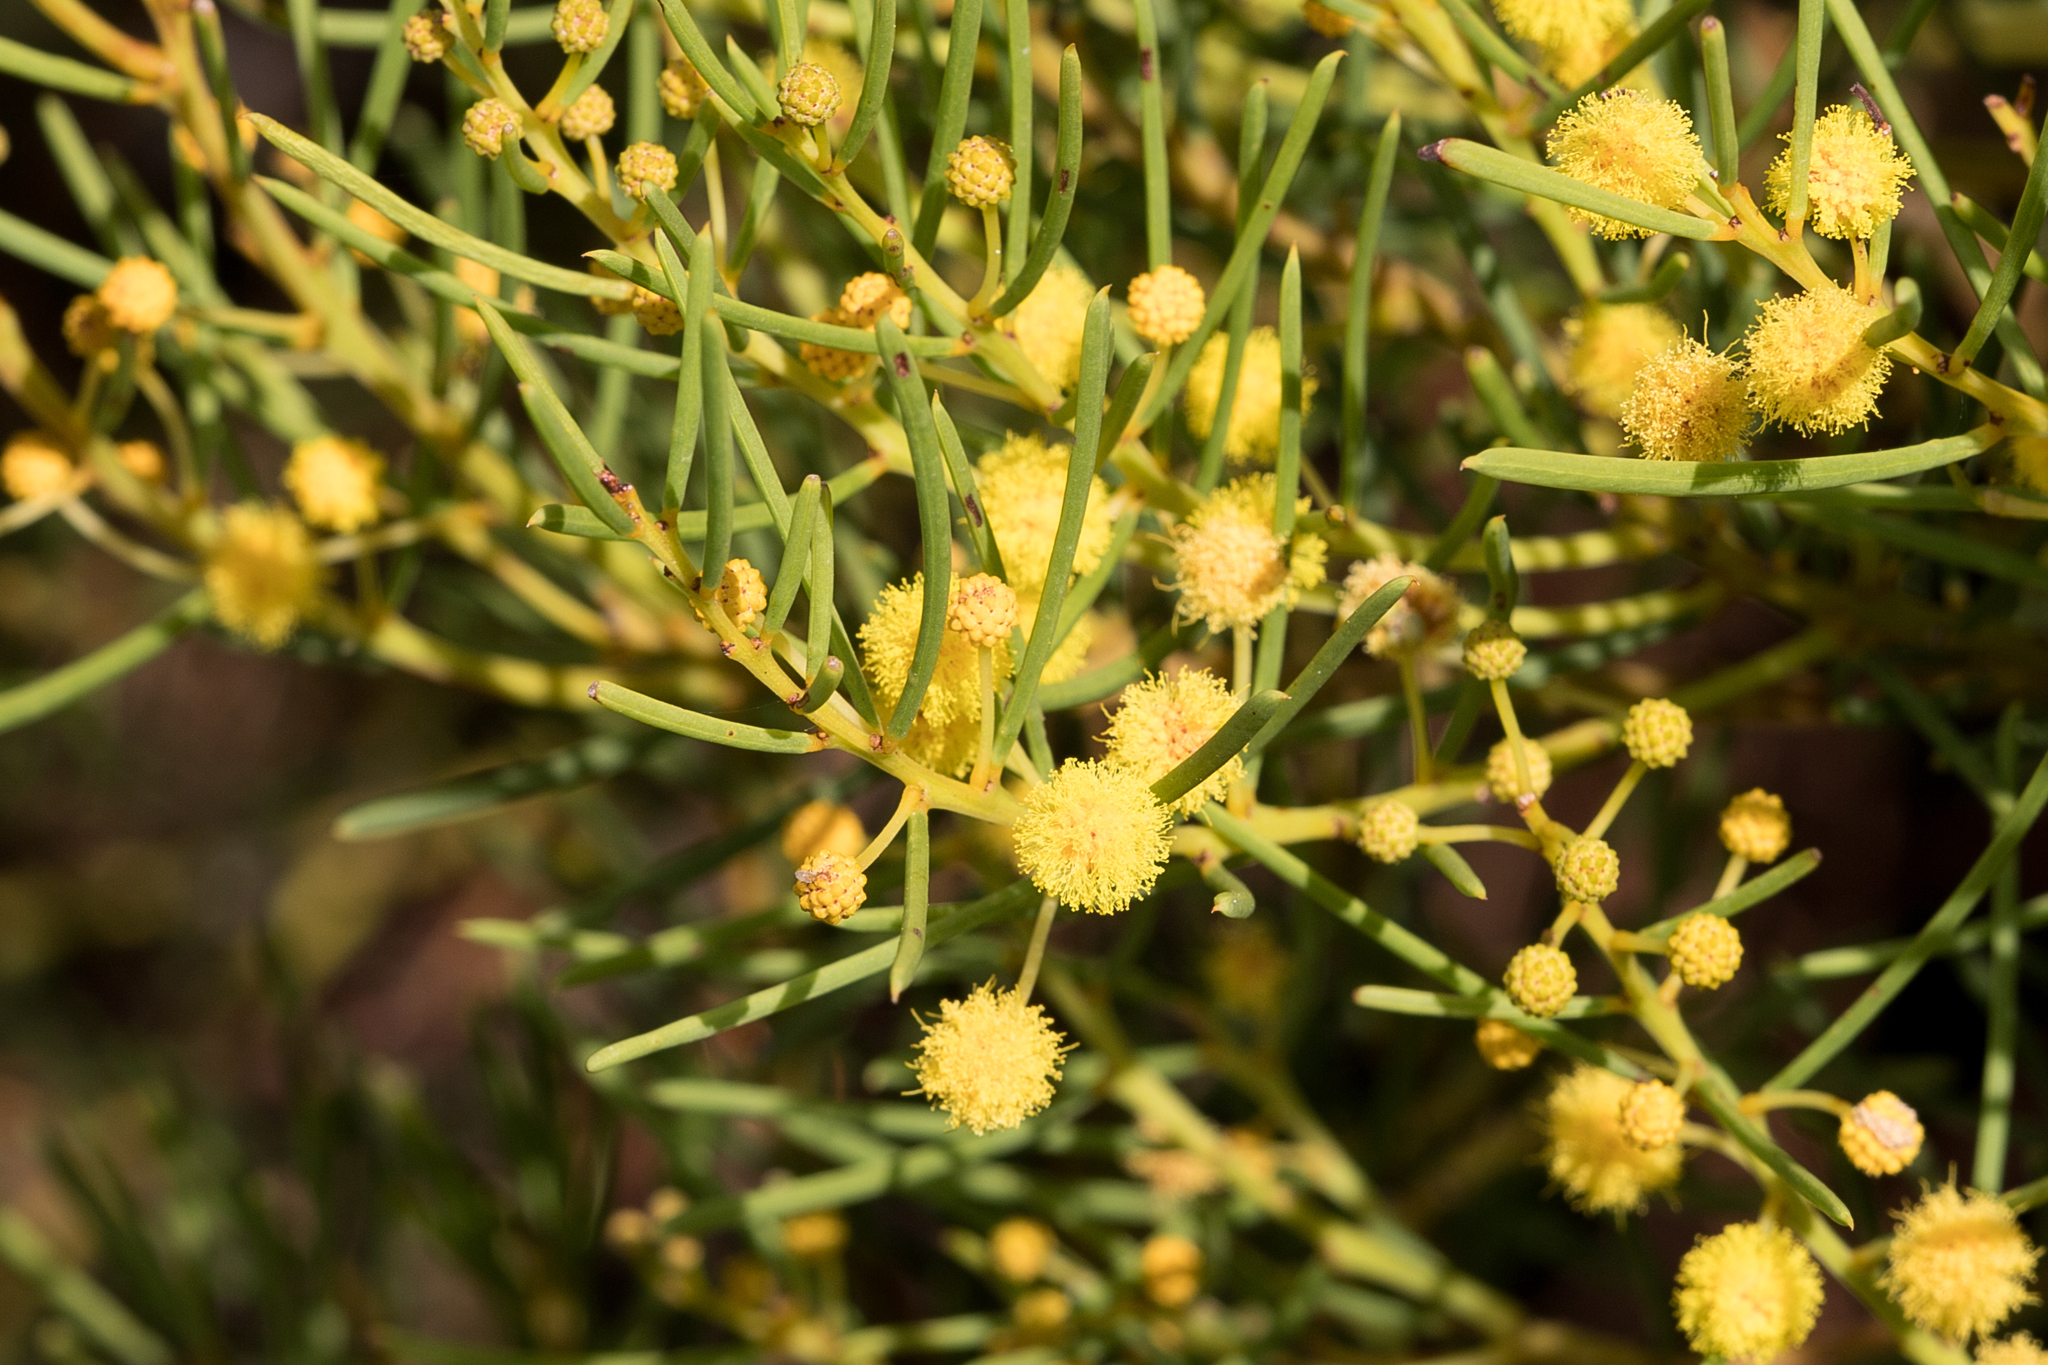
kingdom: Plantae
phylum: Tracheophyta
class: Magnoliopsida
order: Fabales
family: Fabaceae
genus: Acacia
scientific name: Acacia nematophylla
